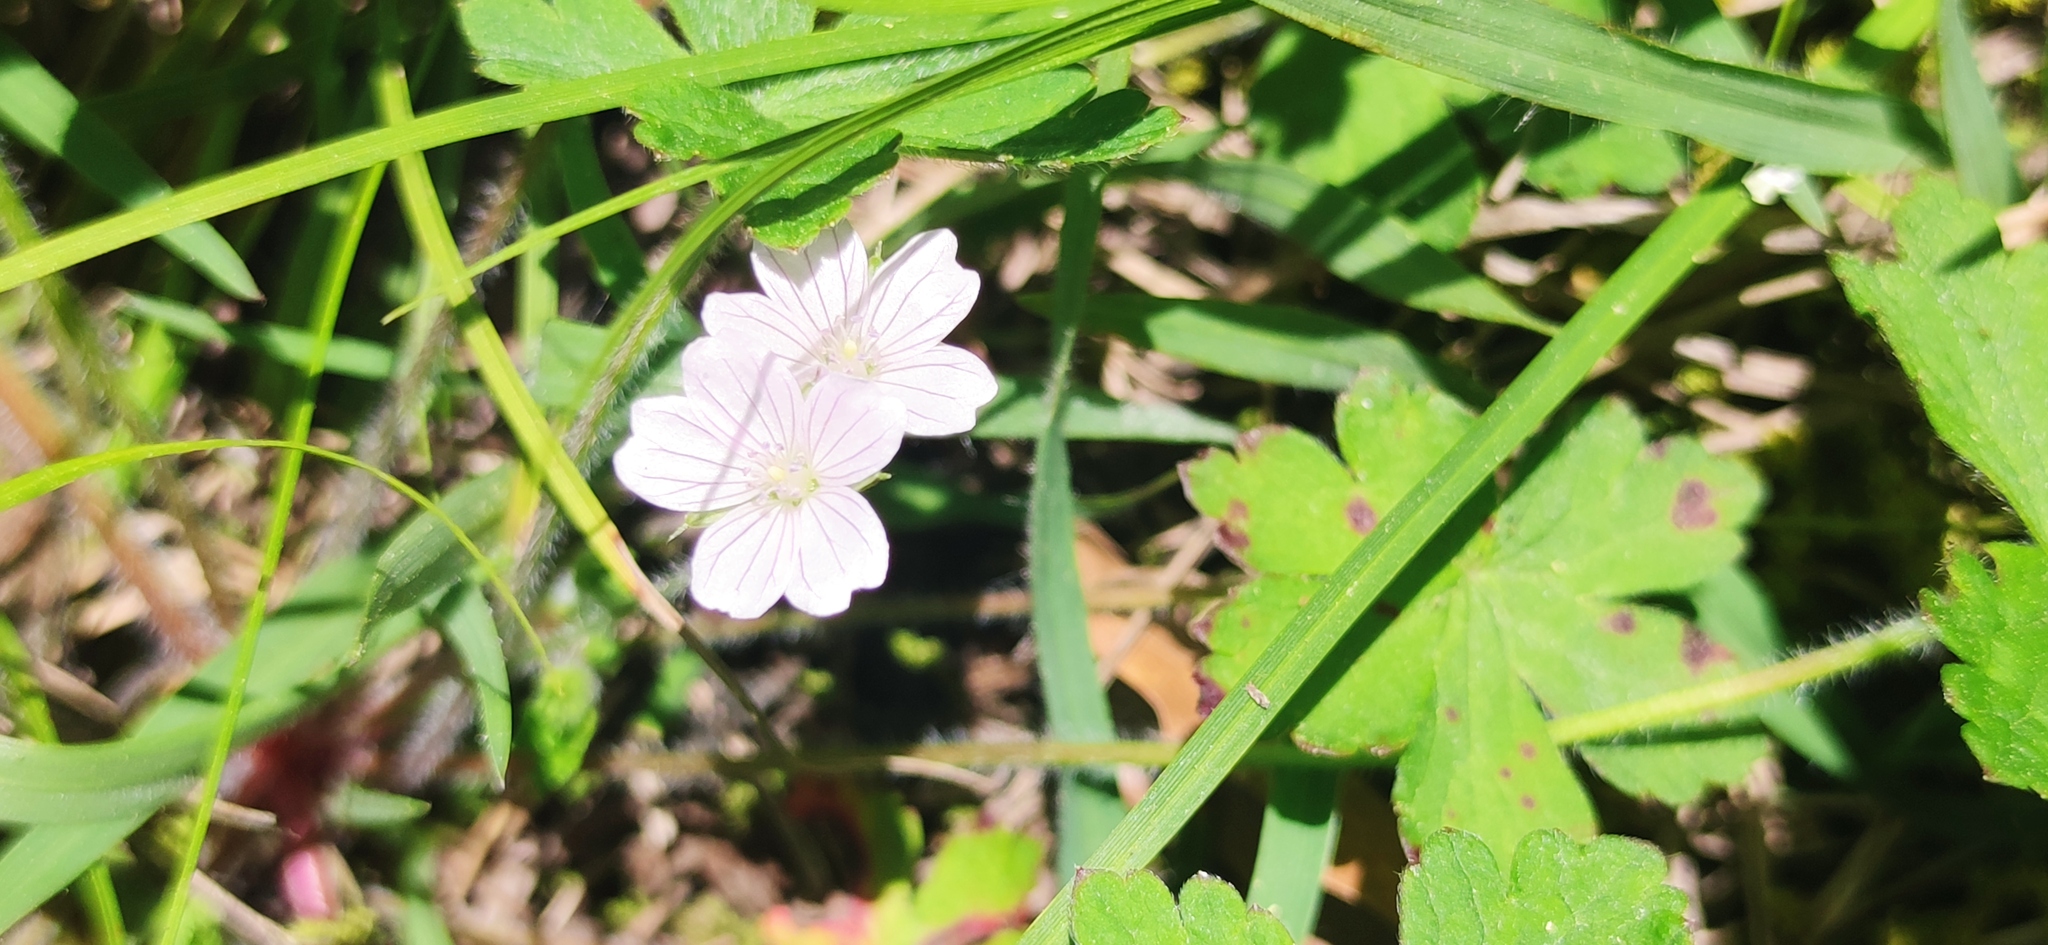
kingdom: Plantae
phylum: Tracheophyta
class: Magnoliopsida
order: Geraniales
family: Geraniaceae
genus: Geranium
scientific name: Geranium seemannii
